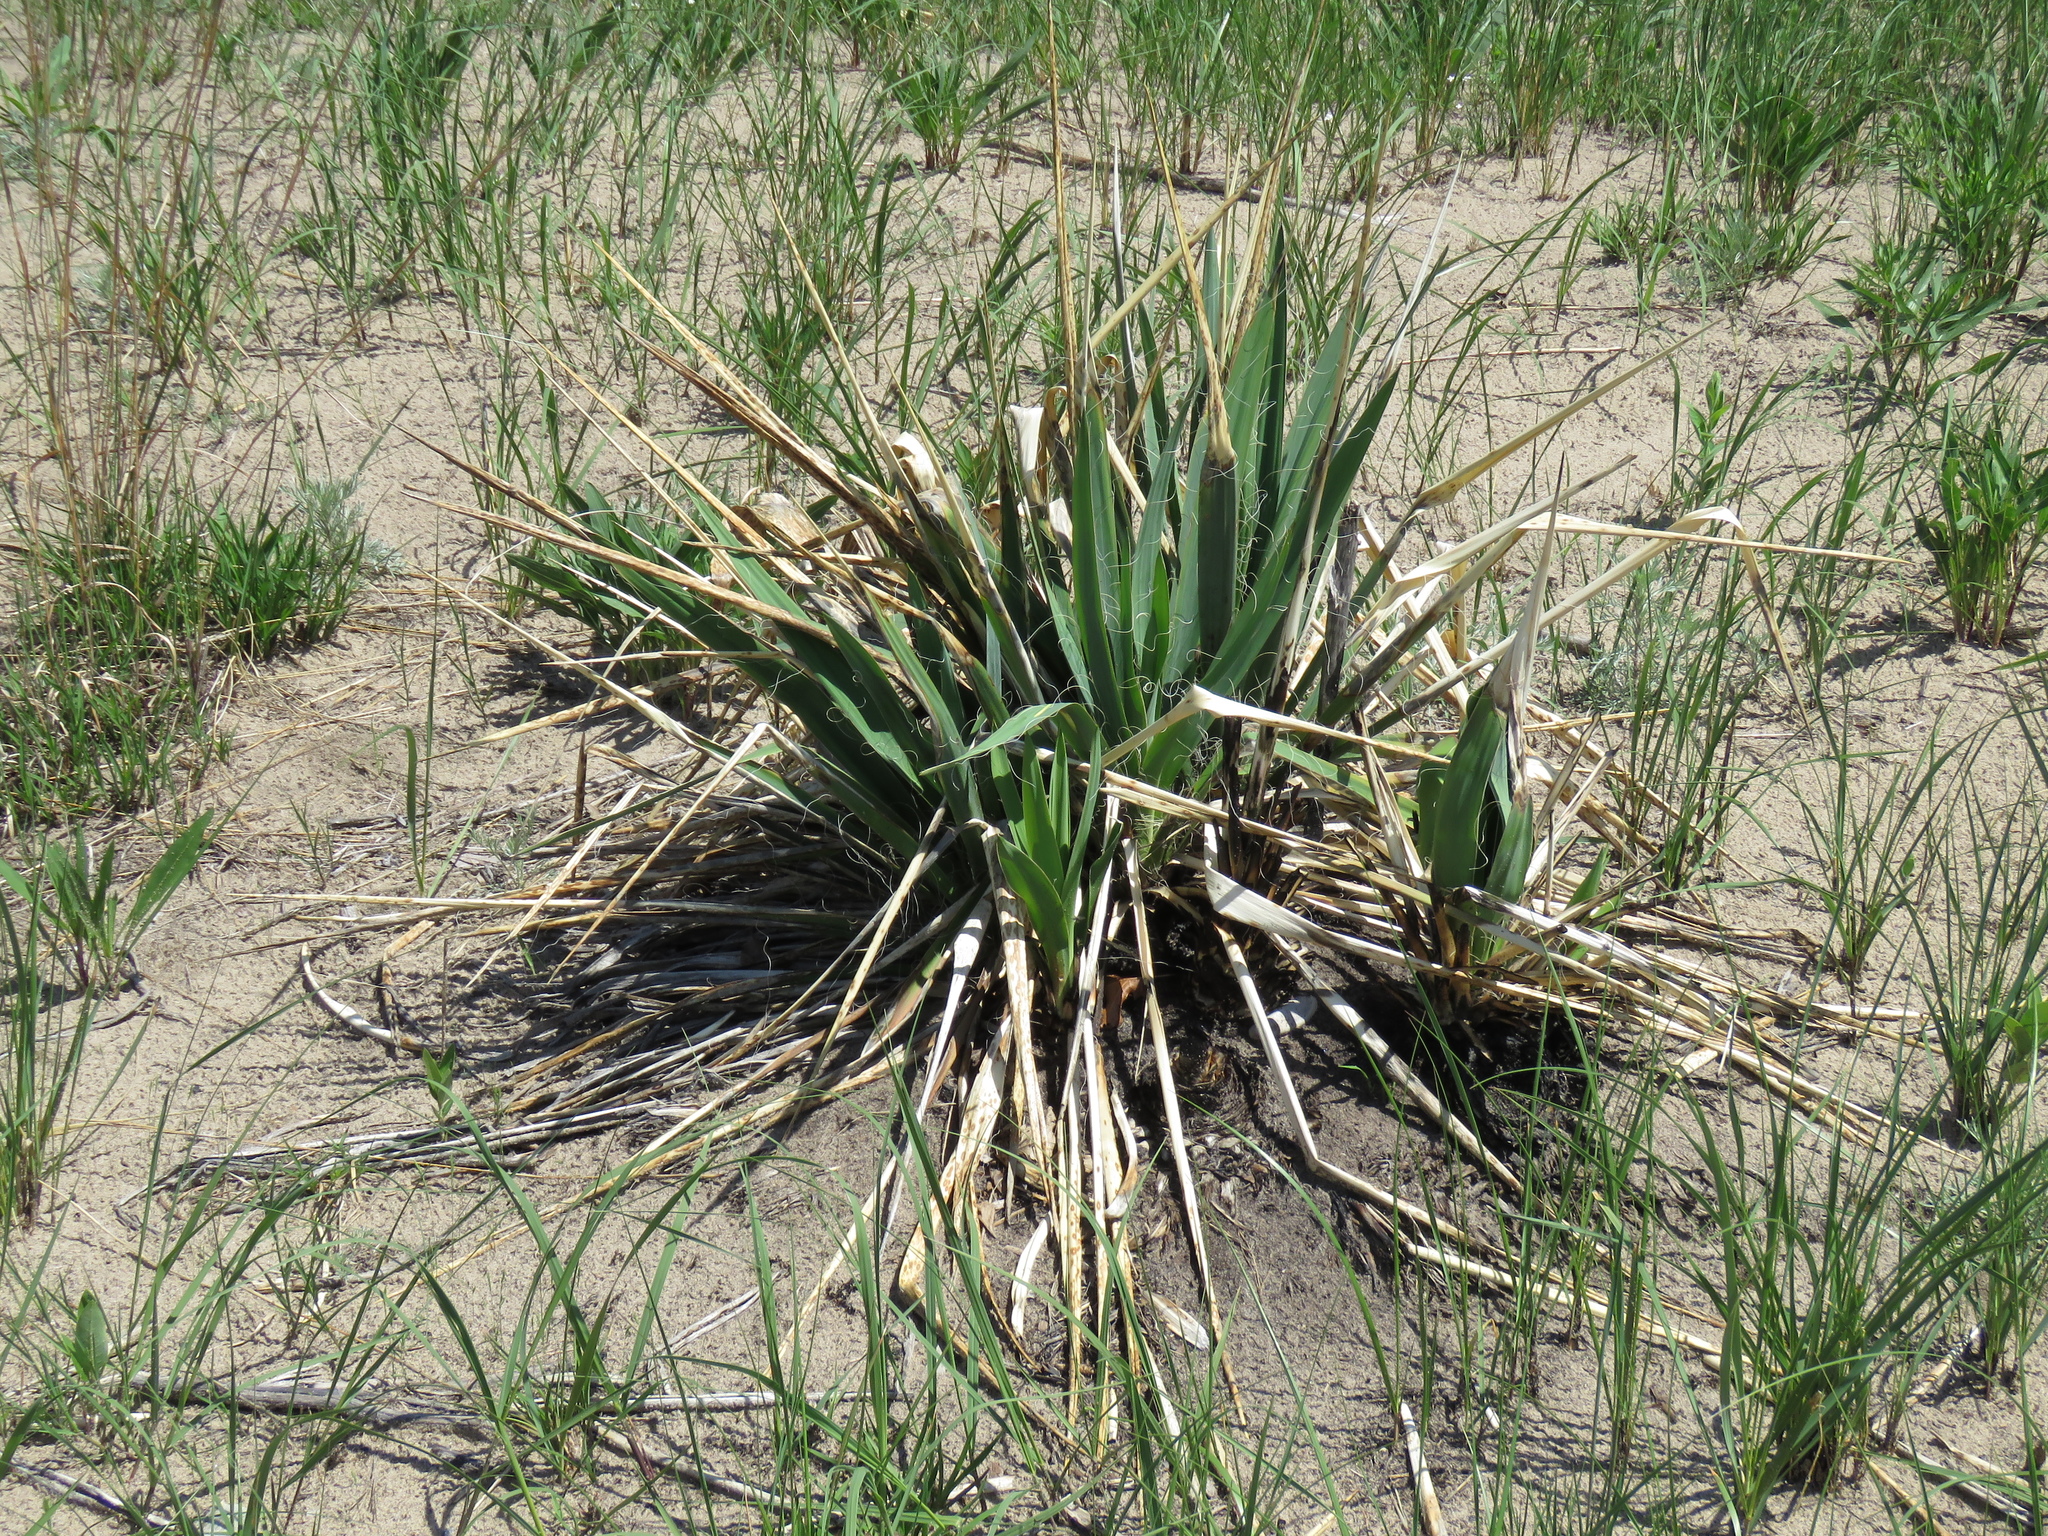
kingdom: Plantae
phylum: Tracheophyta
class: Liliopsida
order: Asparagales
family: Asparagaceae
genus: Yucca
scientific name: Yucca flaccida
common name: Adam's-needle
